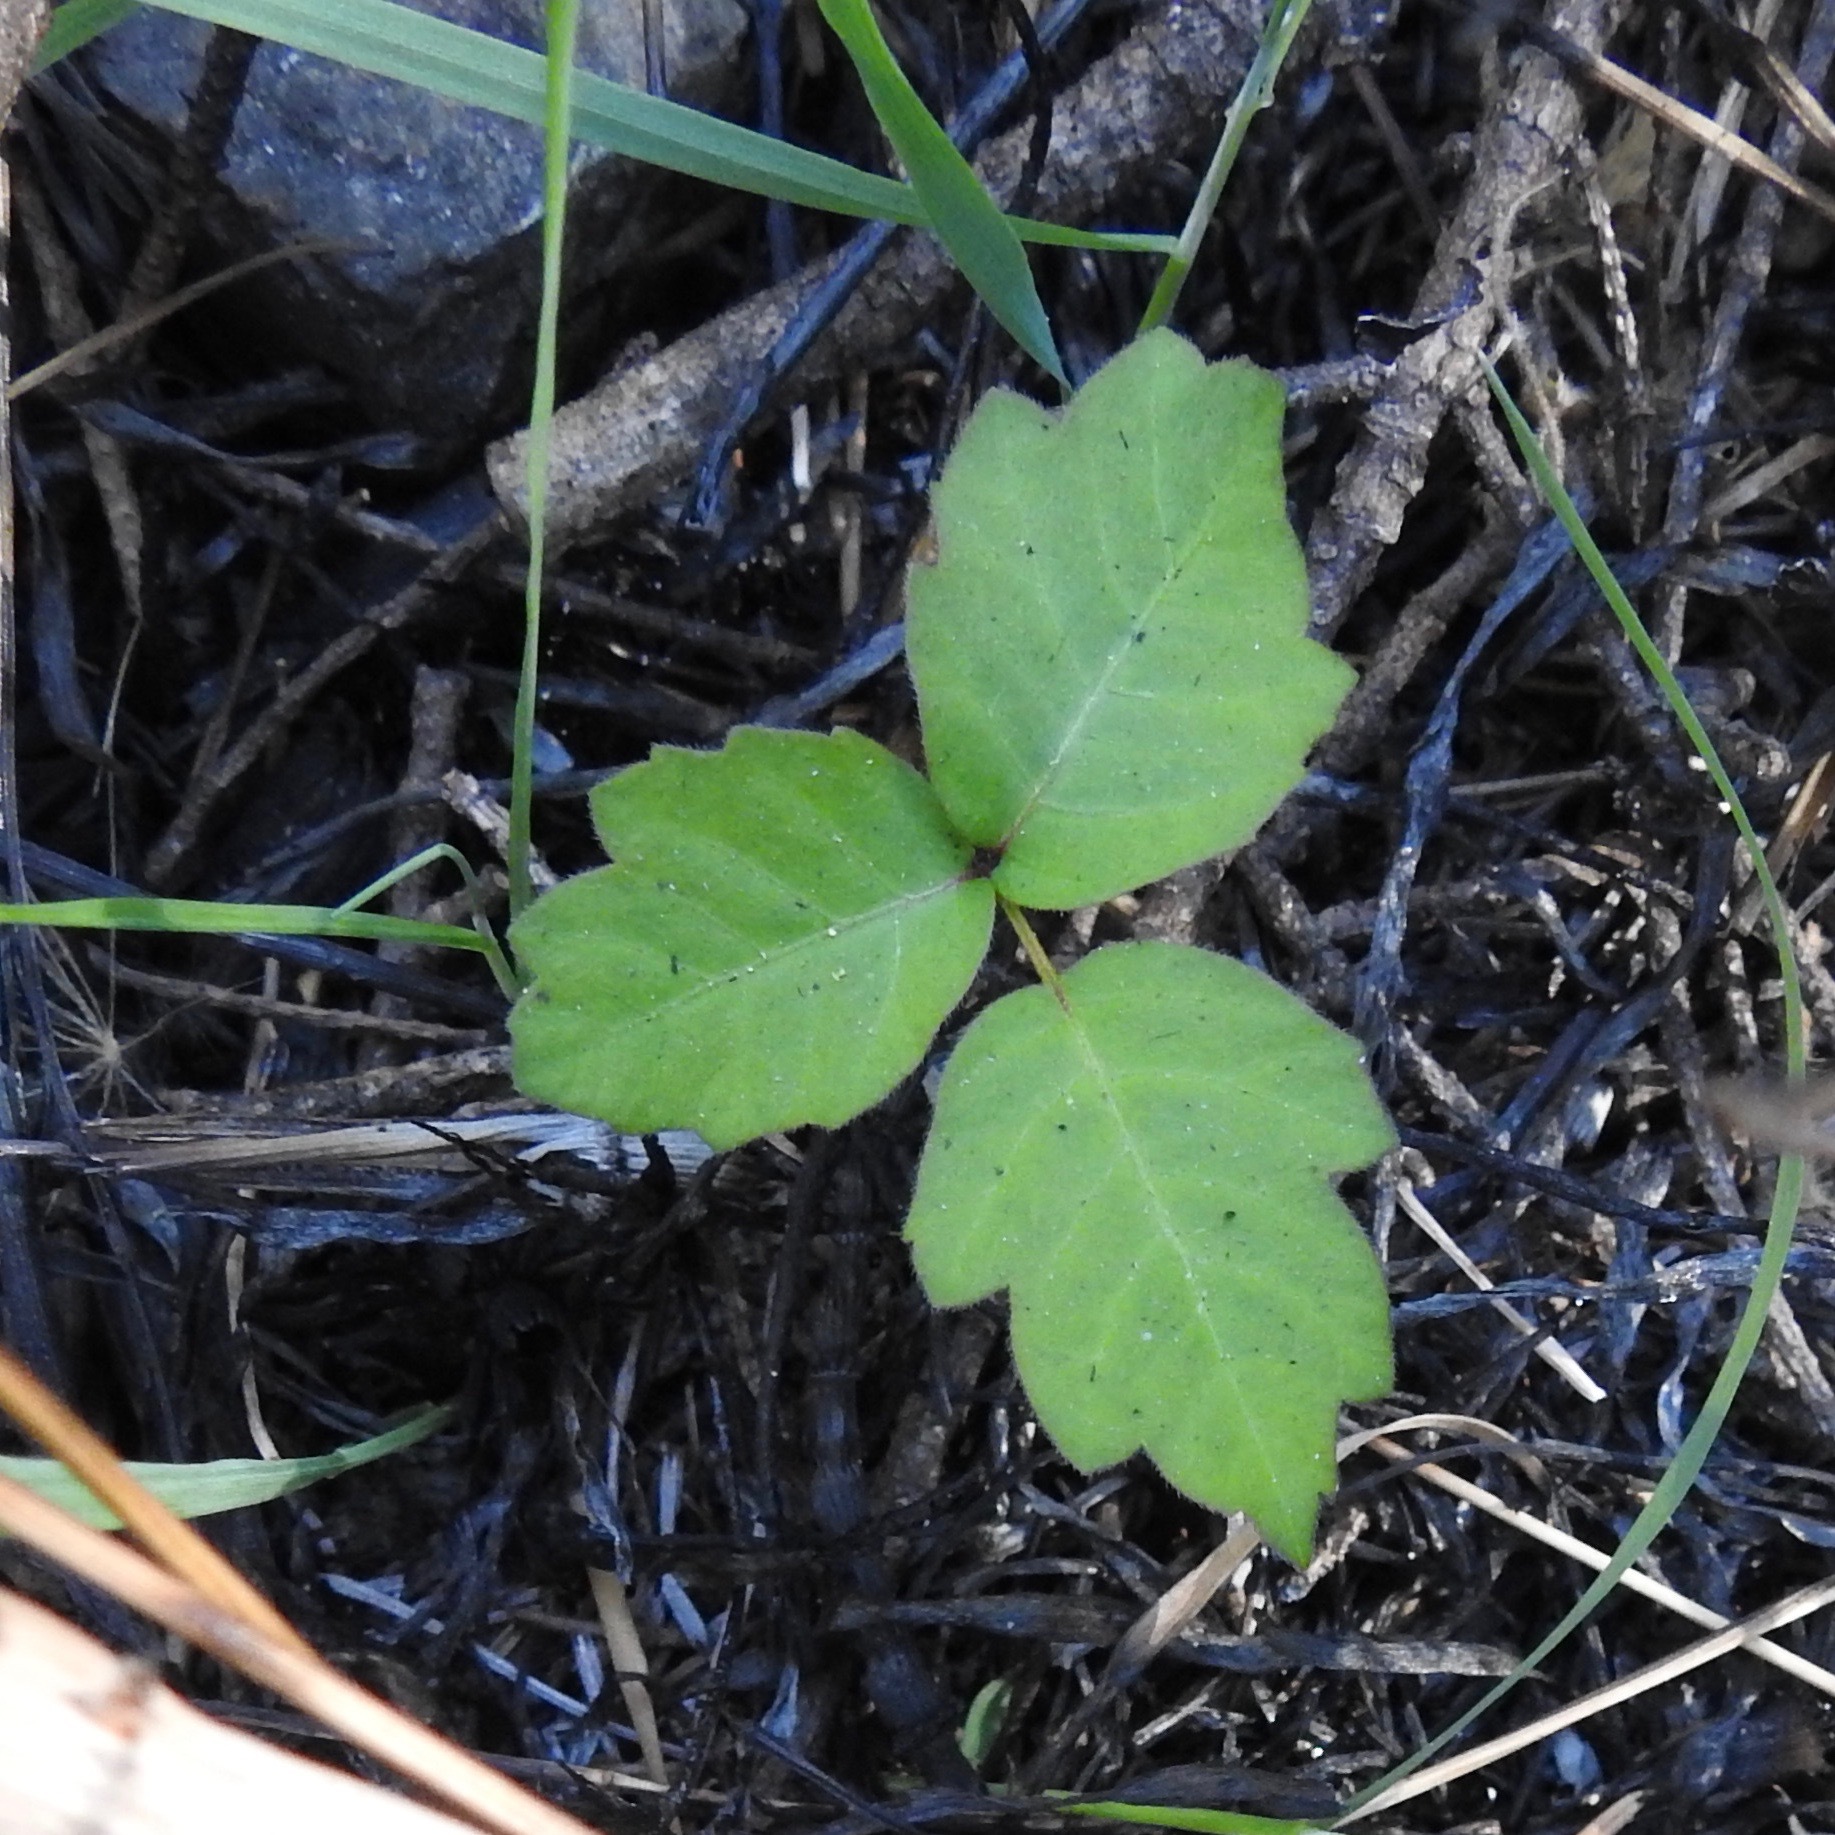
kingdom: Plantae
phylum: Tracheophyta
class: Magnoliopsida
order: Sapindales
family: Anacardiaceae
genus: Toxicodendron
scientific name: Toxicodendron diversilobum
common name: Pacific poison-oak
